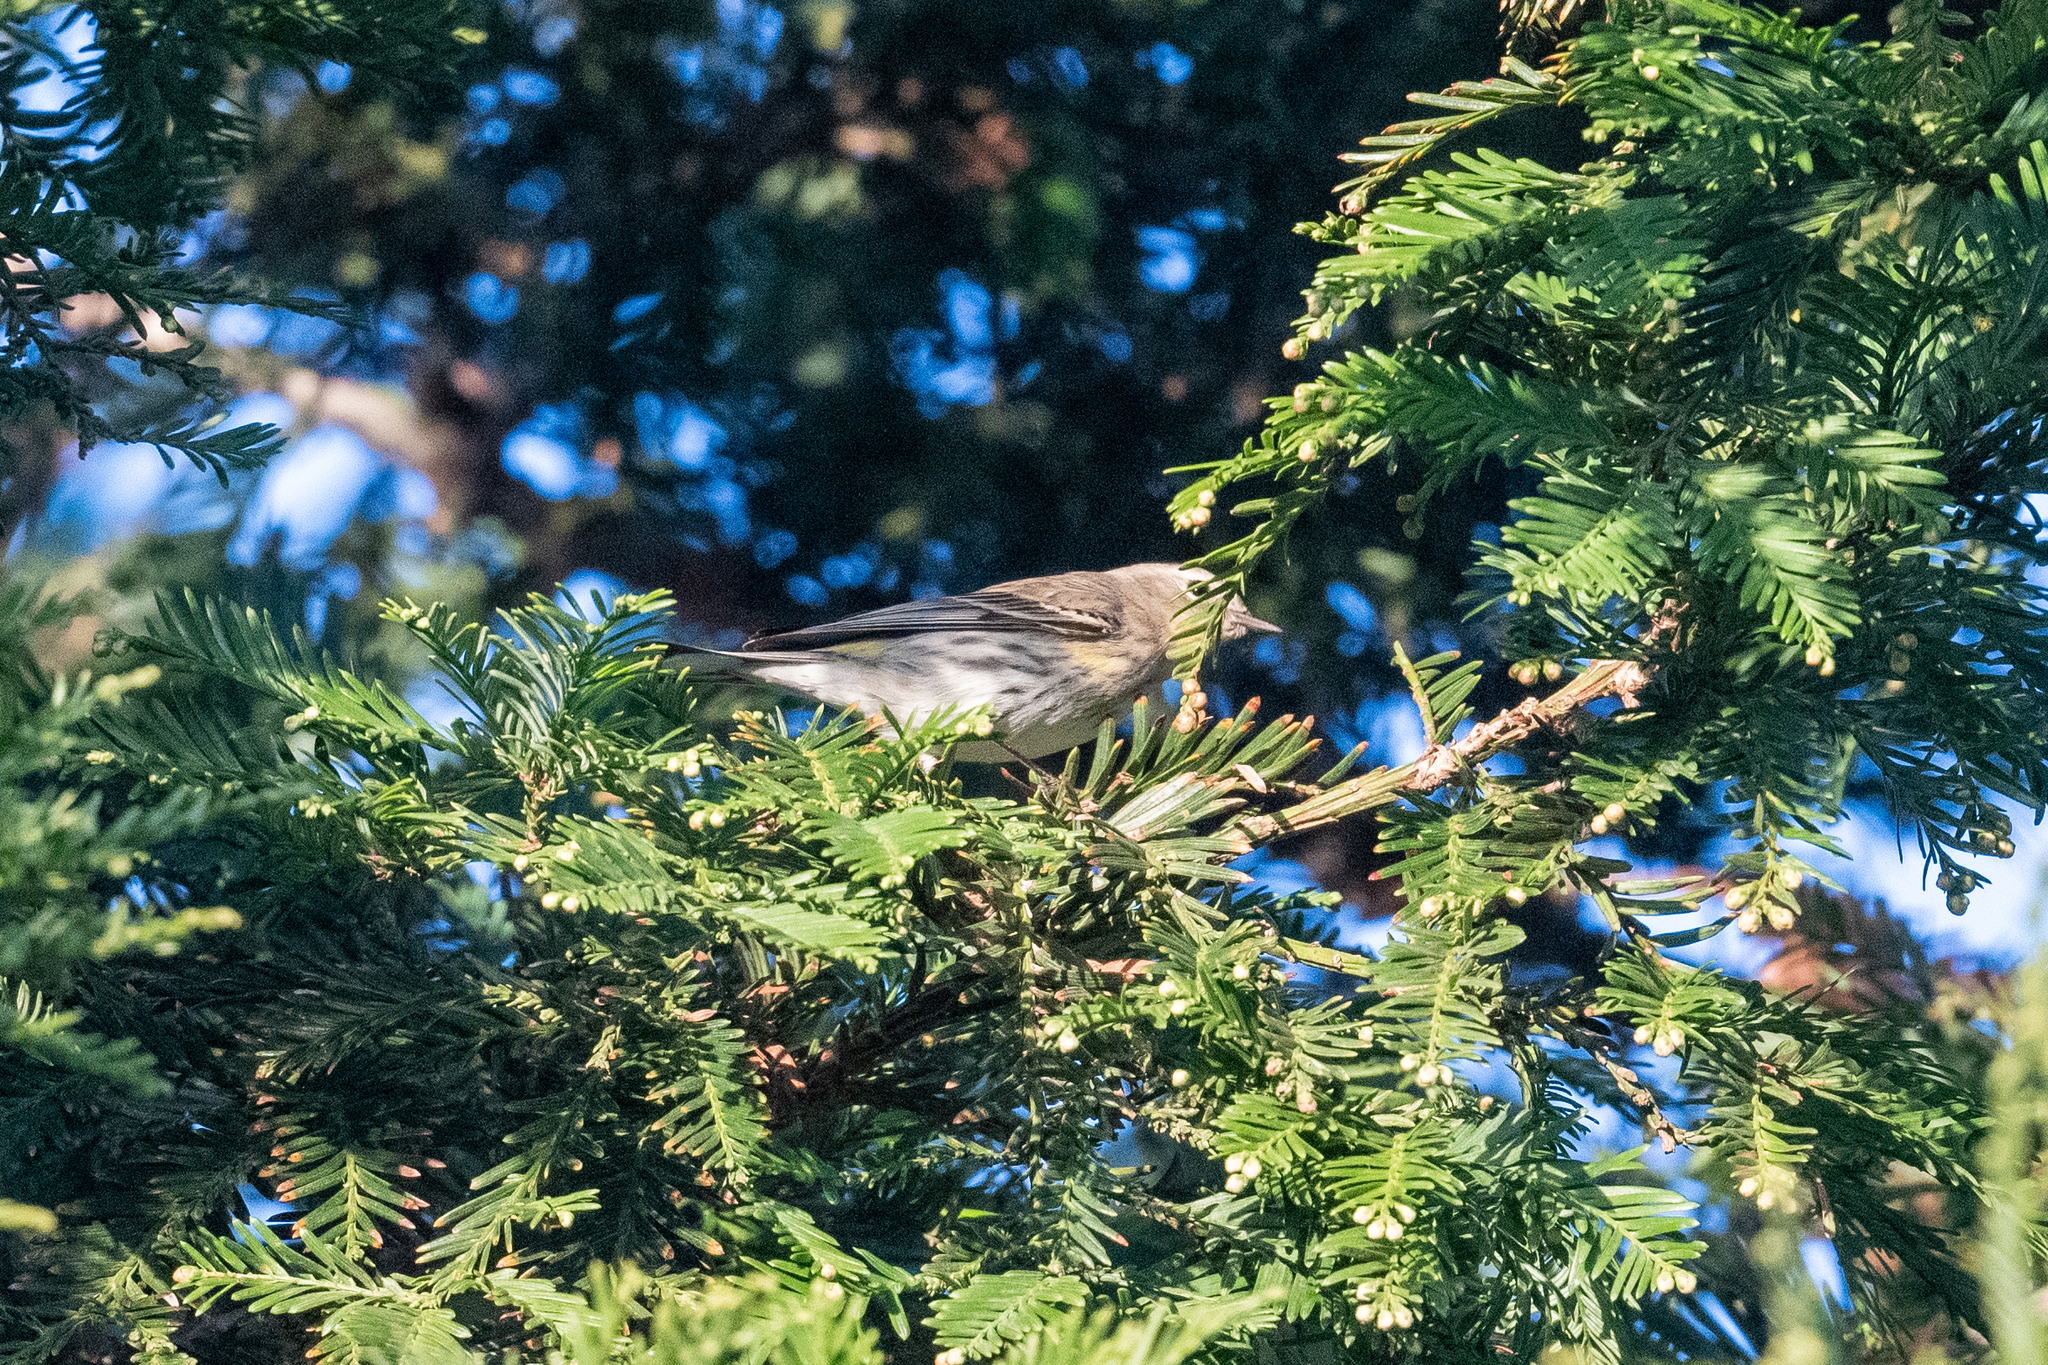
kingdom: Animalia
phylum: Chordata
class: Aves
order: Passeriformes
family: Parulidae
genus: Setophaga
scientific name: Setophaga coronata
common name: Myrtle warbler
